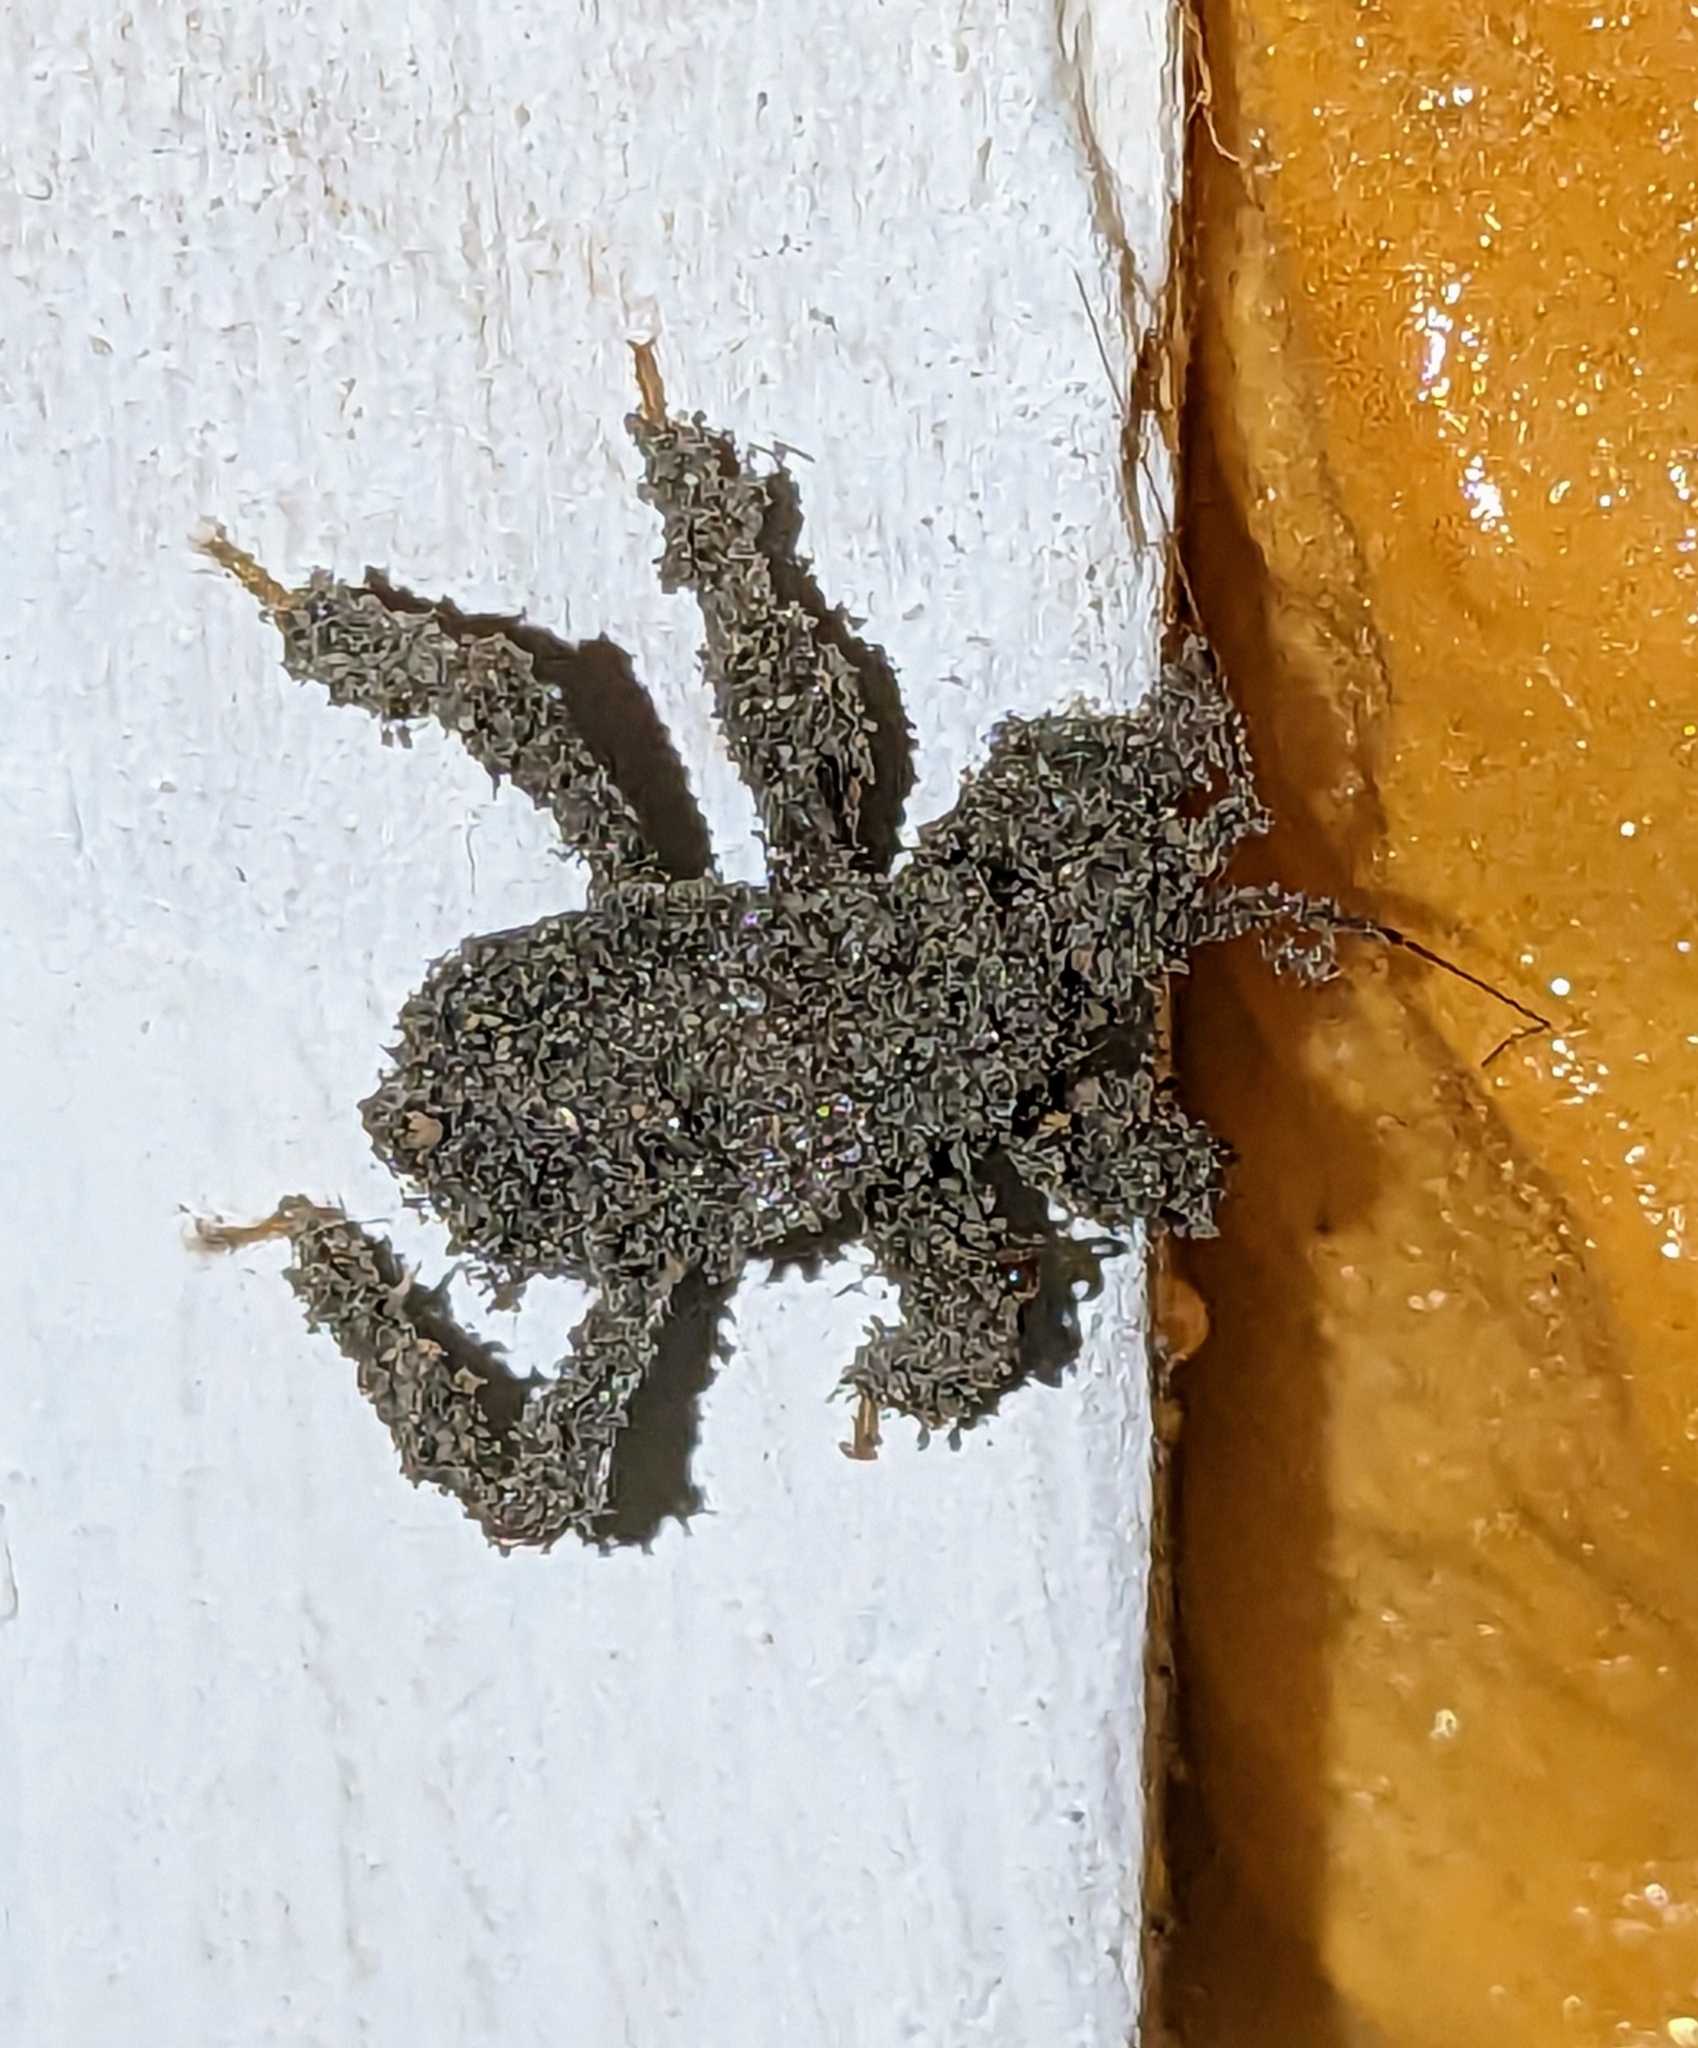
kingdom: Animalia
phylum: Arthropoda
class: Insecta
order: Hemiptera
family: Reduviidae
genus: Reduvius
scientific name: Reduvius personatus
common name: Masked hunter
